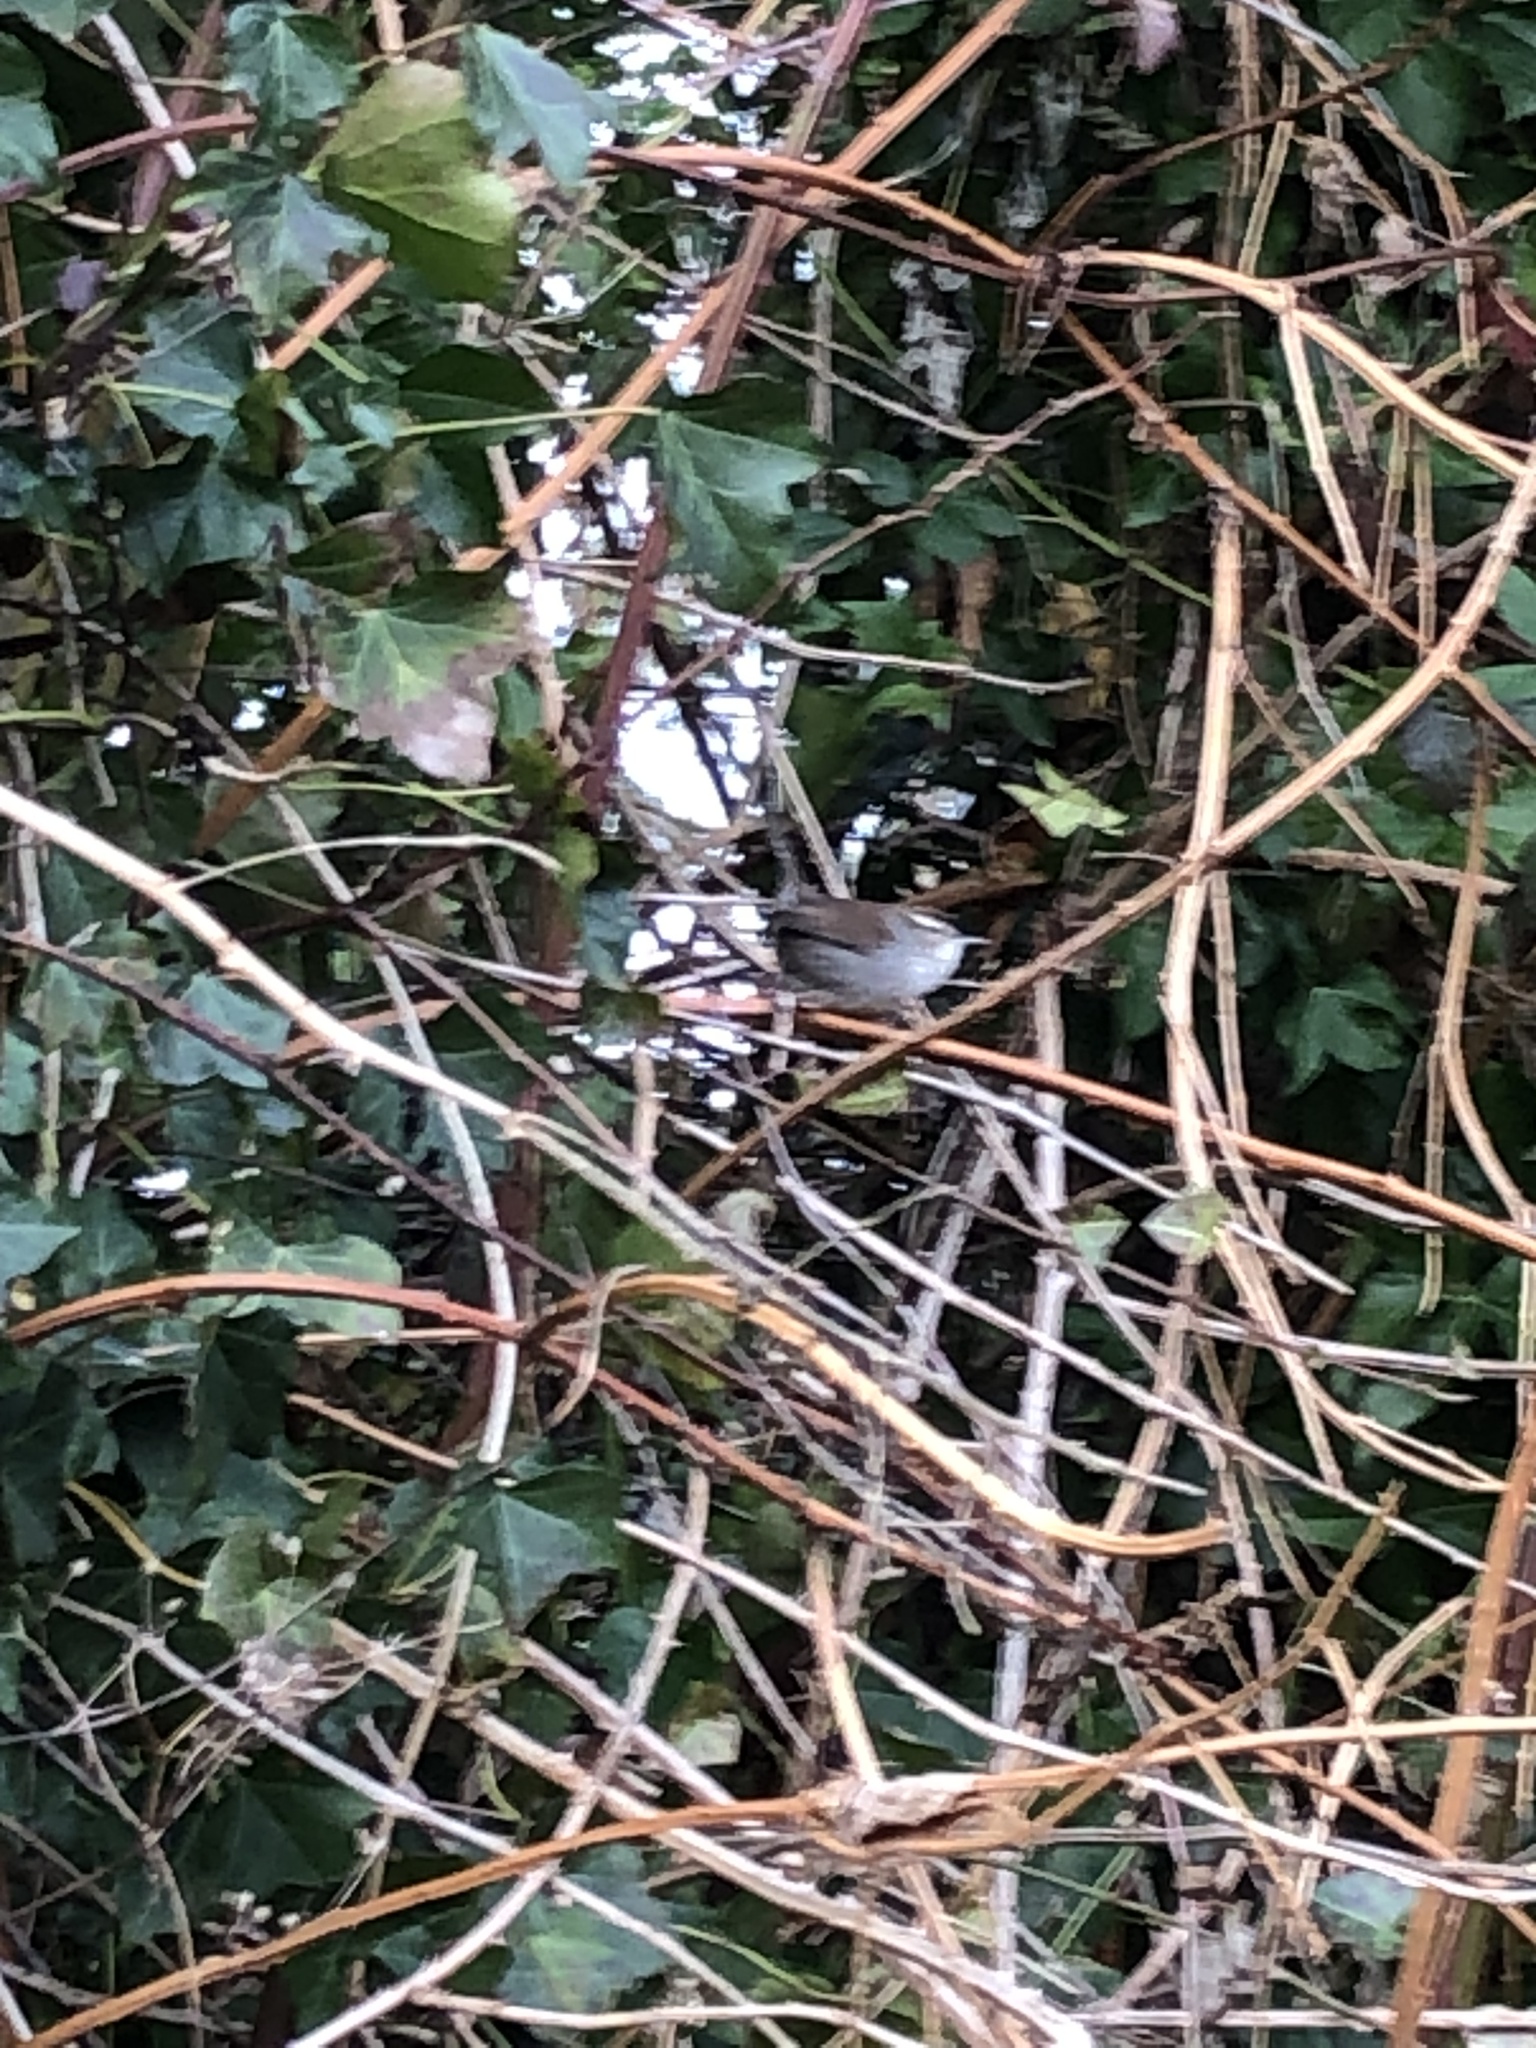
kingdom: Animalia
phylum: Chordata
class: Aves
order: Passeriformes
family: Troglodytidae
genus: Thryomanes
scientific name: Thryomanes bewickii
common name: Bewick's wren
